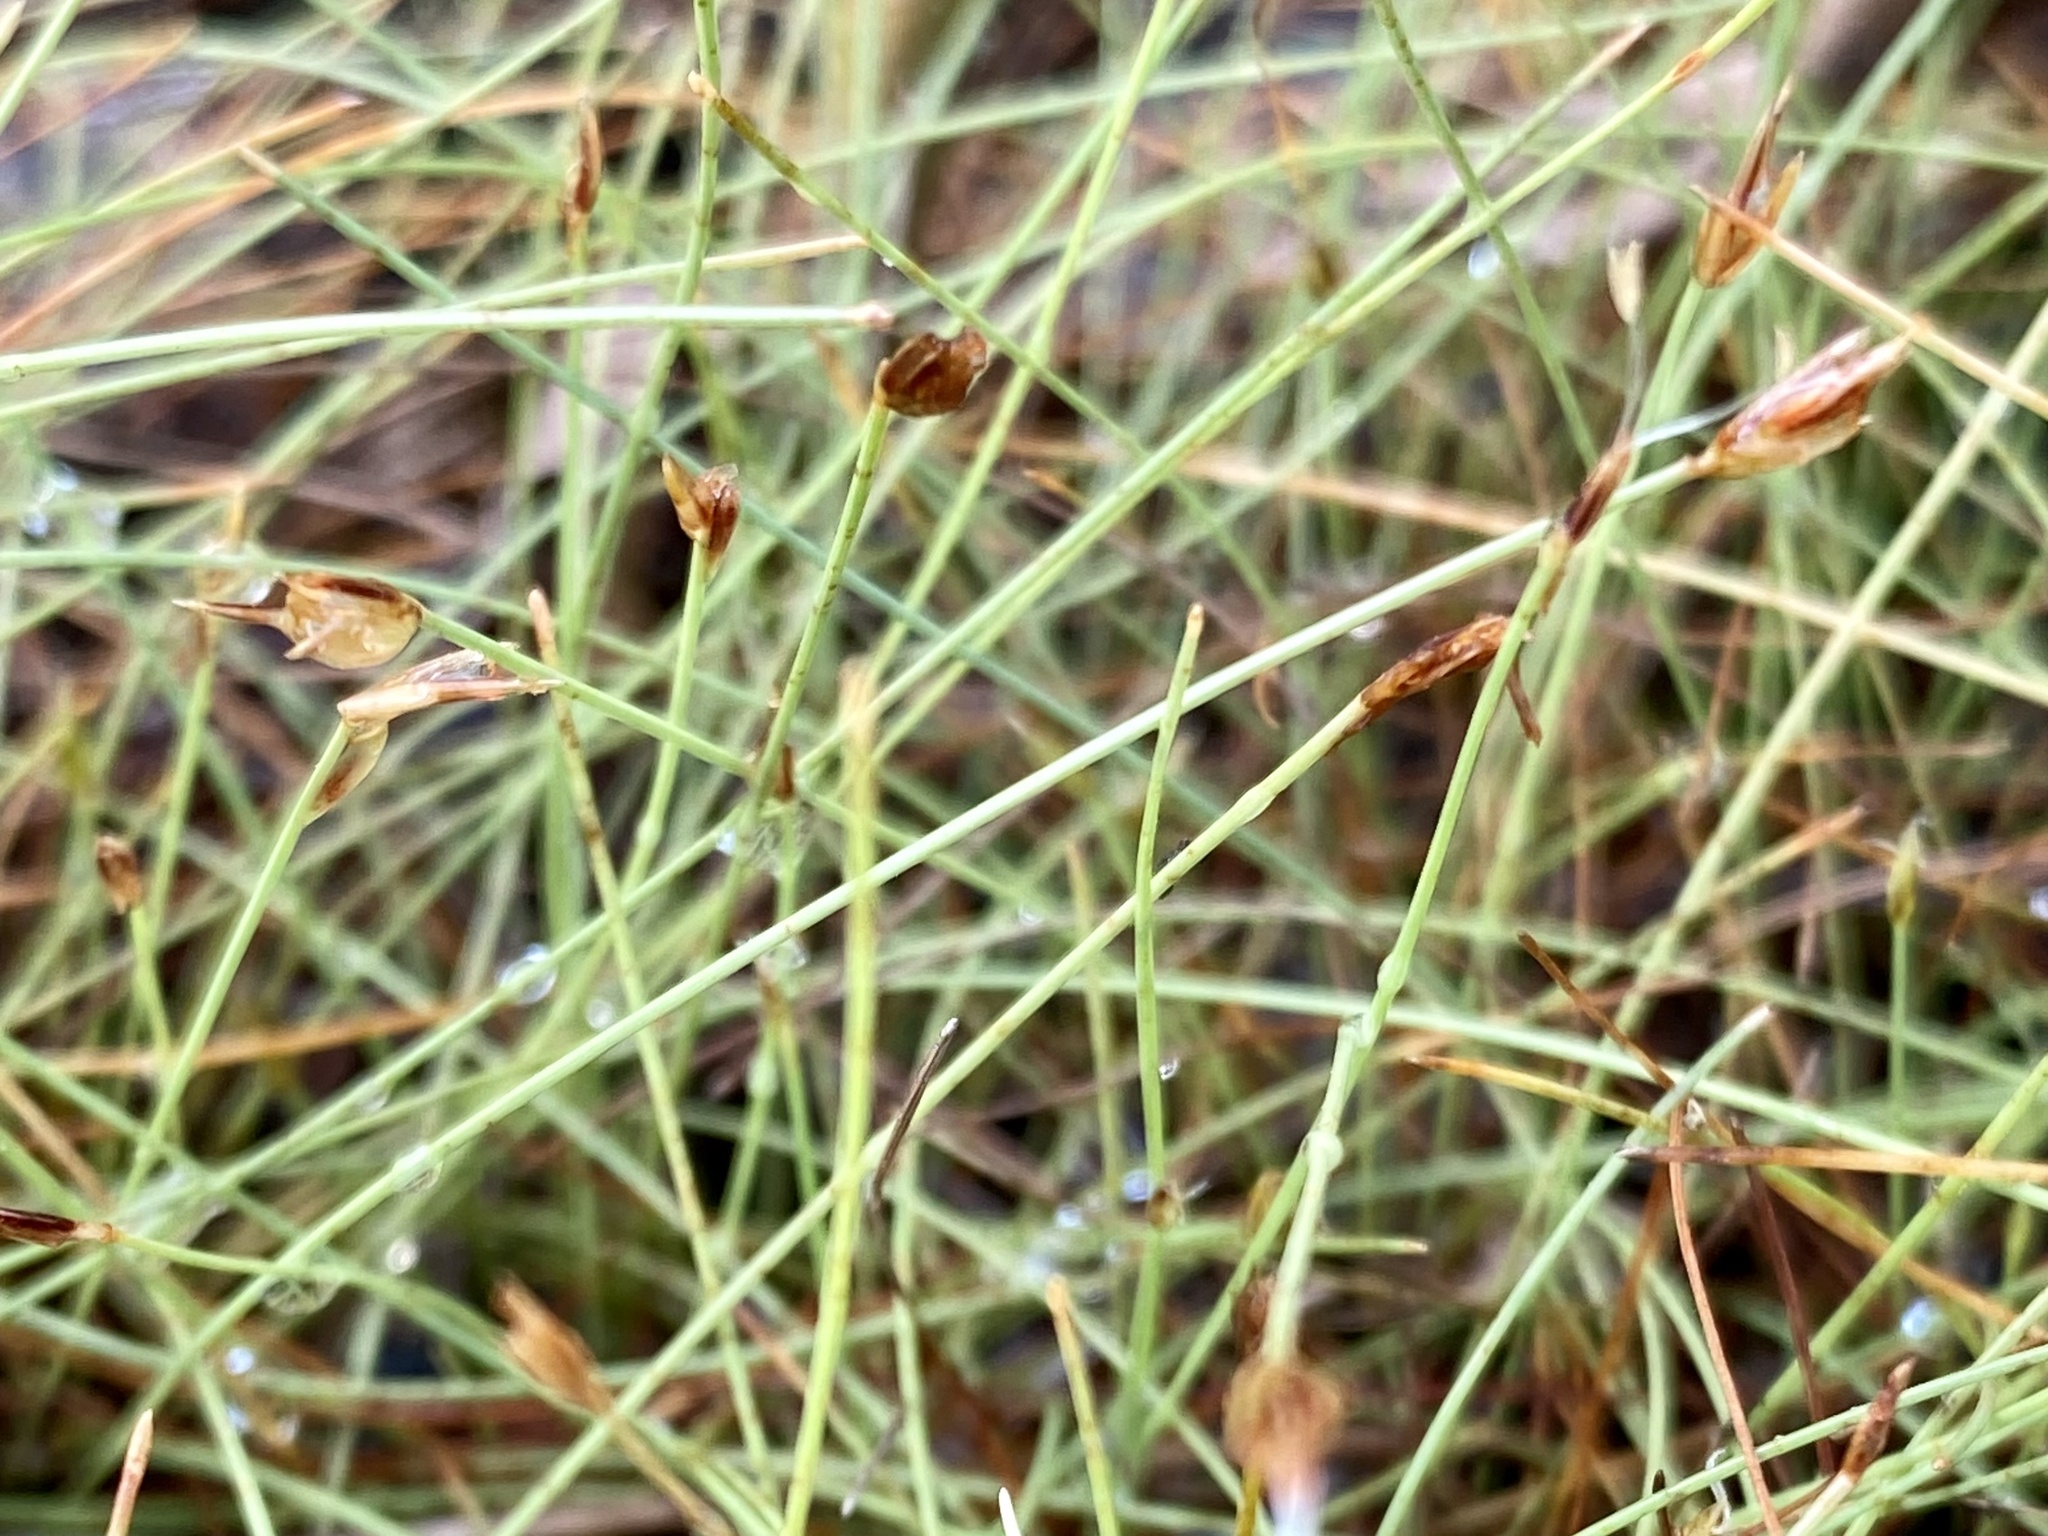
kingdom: Plantae
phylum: Tracheophyta
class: Liliopsida
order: Poales
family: Cyperaceae
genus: Eleocharis
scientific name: Eleocharis baldwinii
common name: Baldwin's spike-rush
